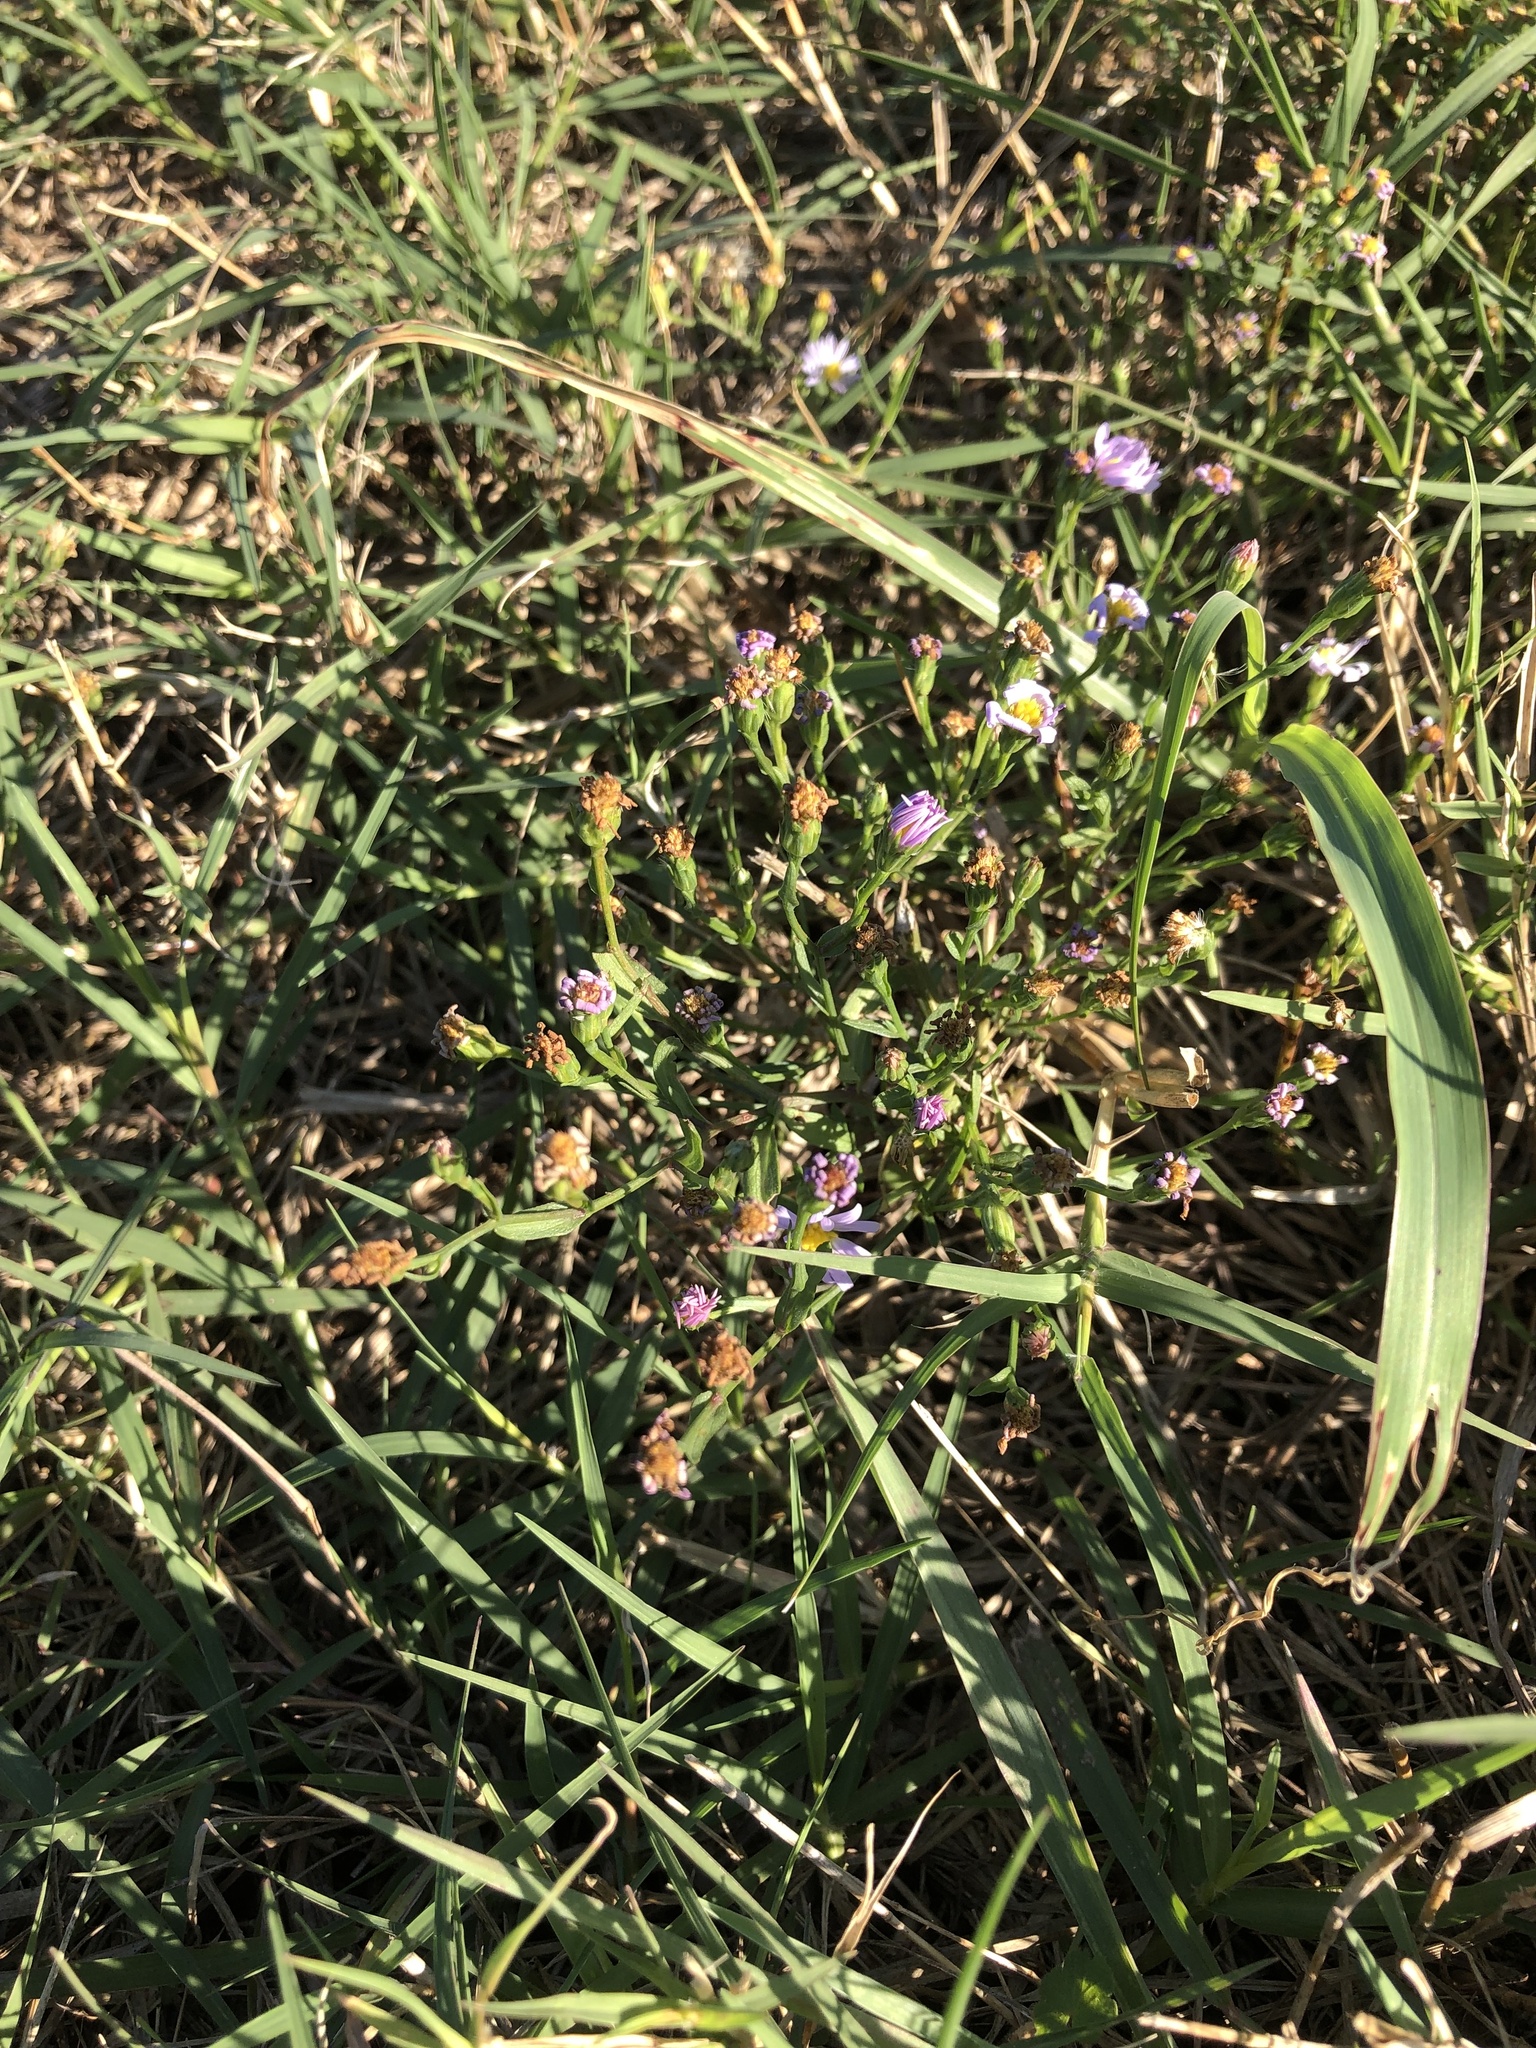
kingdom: Plantae
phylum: Tracheophyta
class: Magnoliopsida
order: Asterales
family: Asteraceae
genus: Symphyotrichum
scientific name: Symphyotrichum divaricatum
